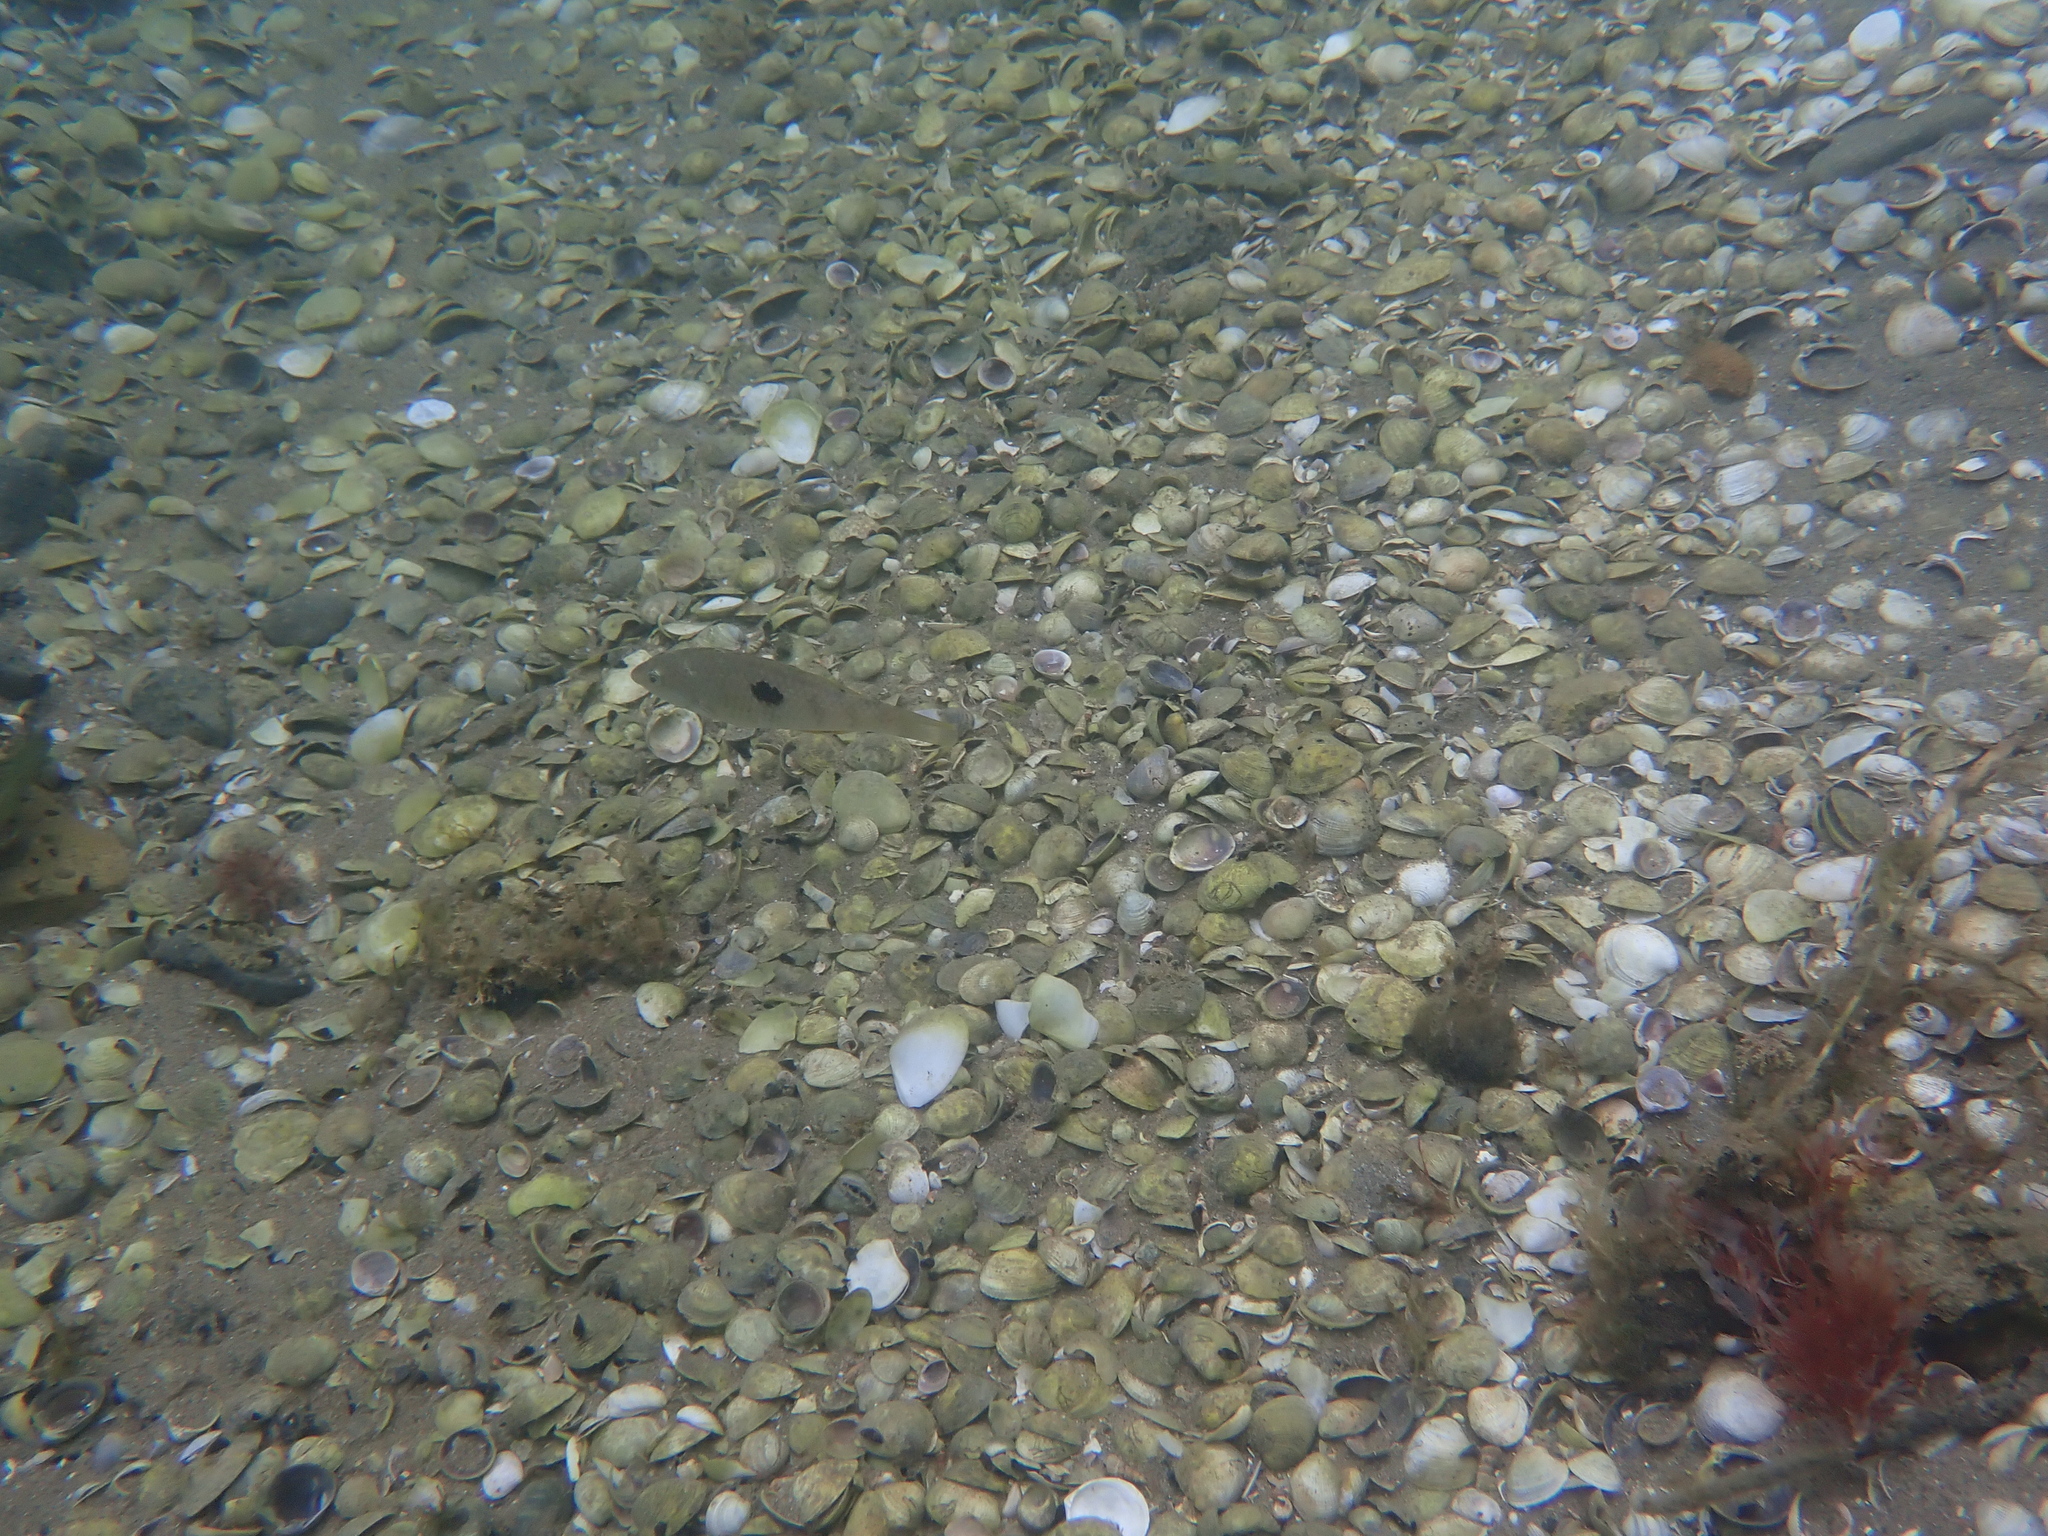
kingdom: Animalia
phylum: Chordata
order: Perciformes
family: Labridae
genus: Notolabrus
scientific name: Notolabrus celidotus
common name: Spotty
